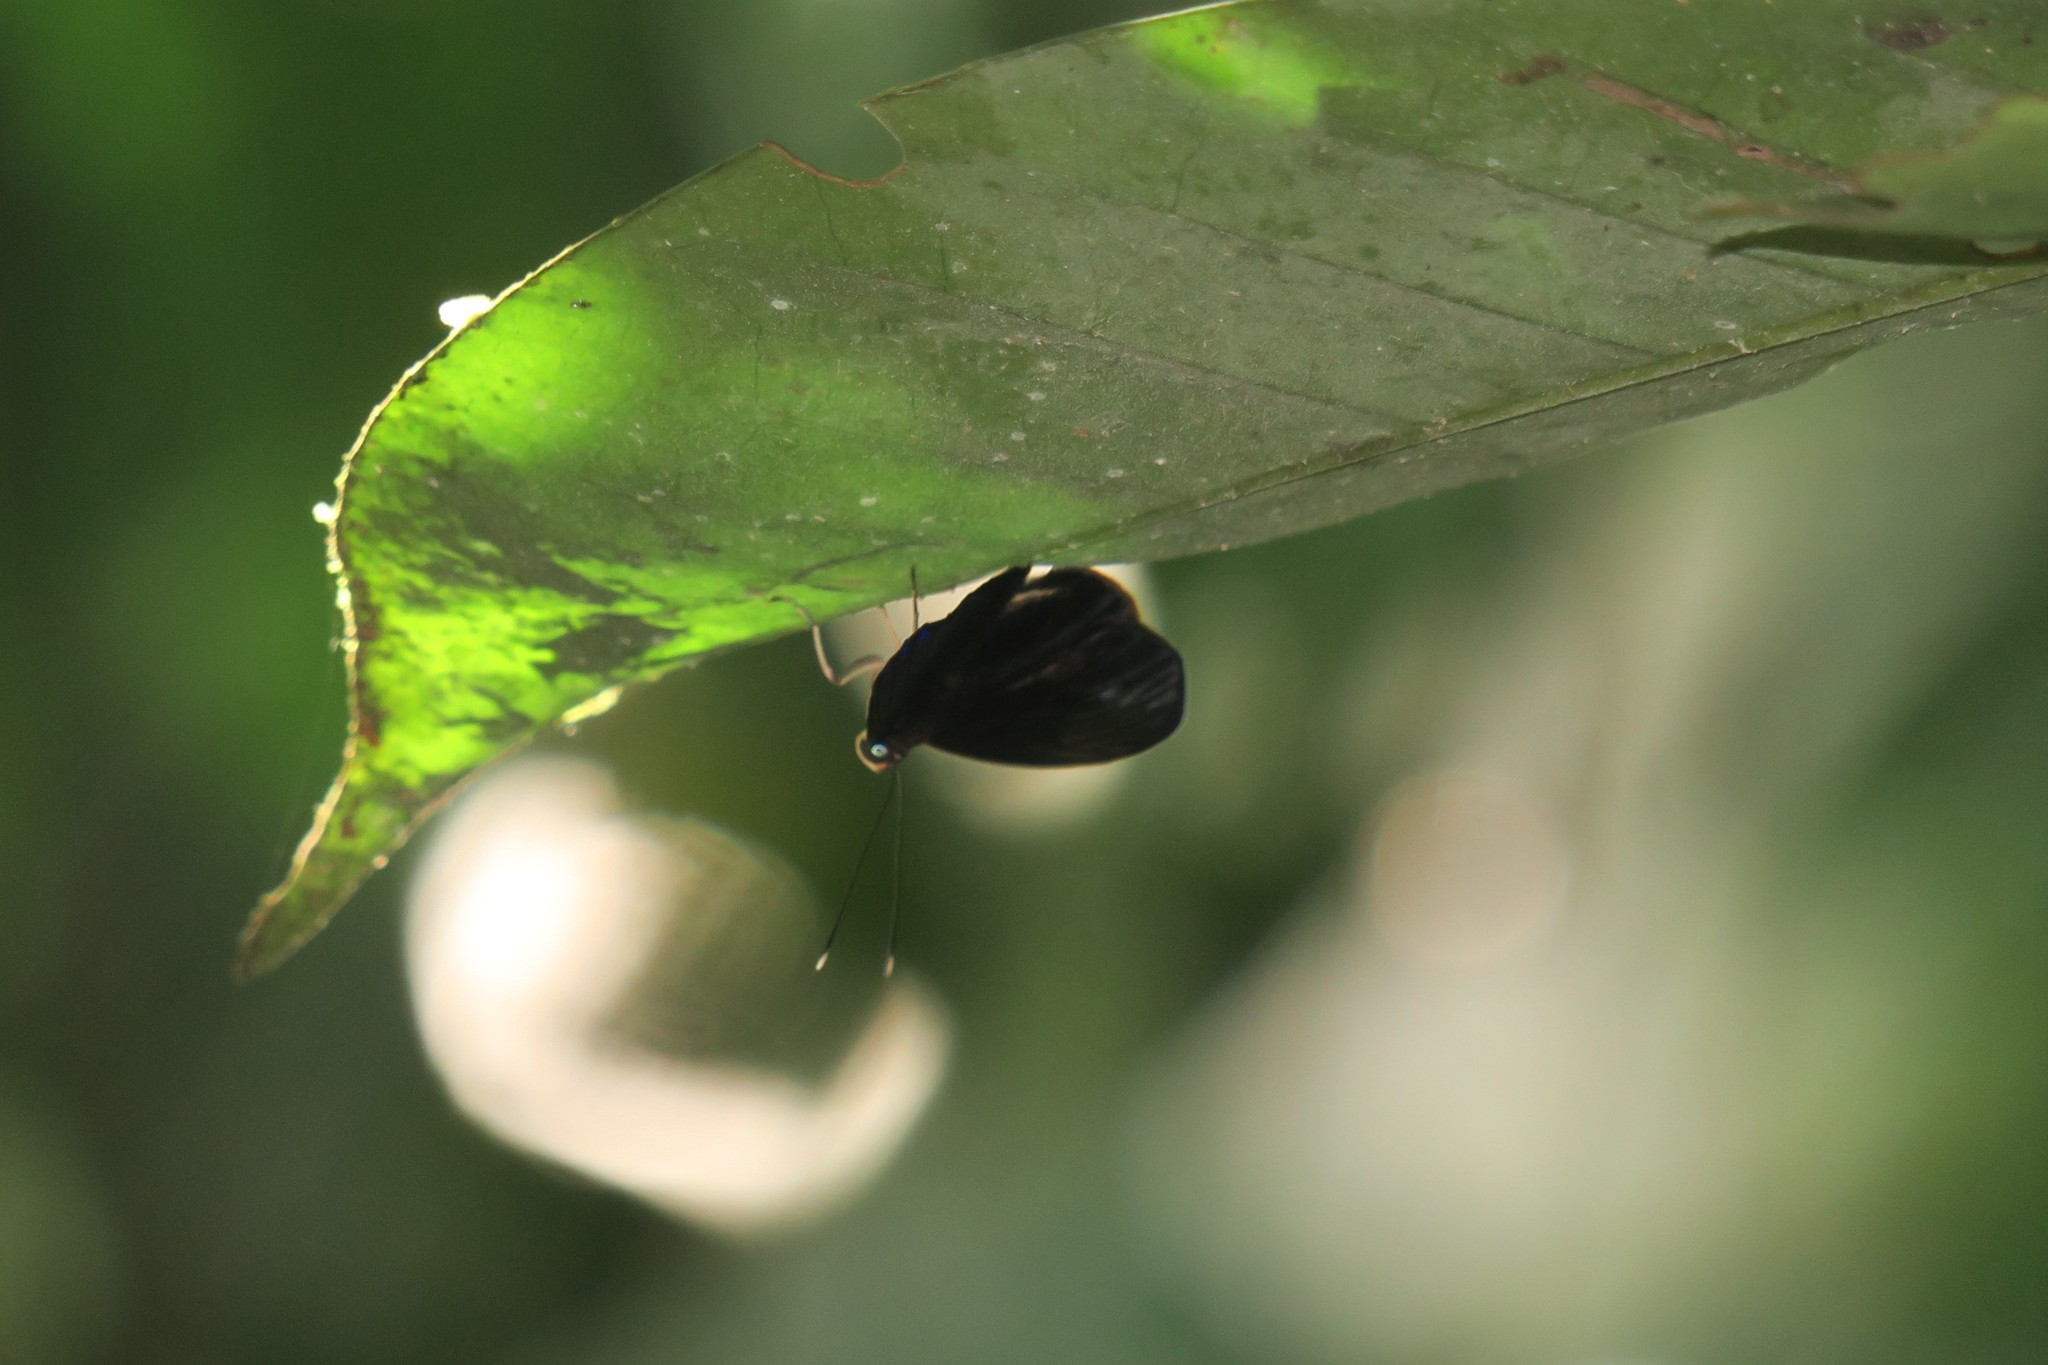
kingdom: Animalia
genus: Alesa
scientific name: Alesa amesis
